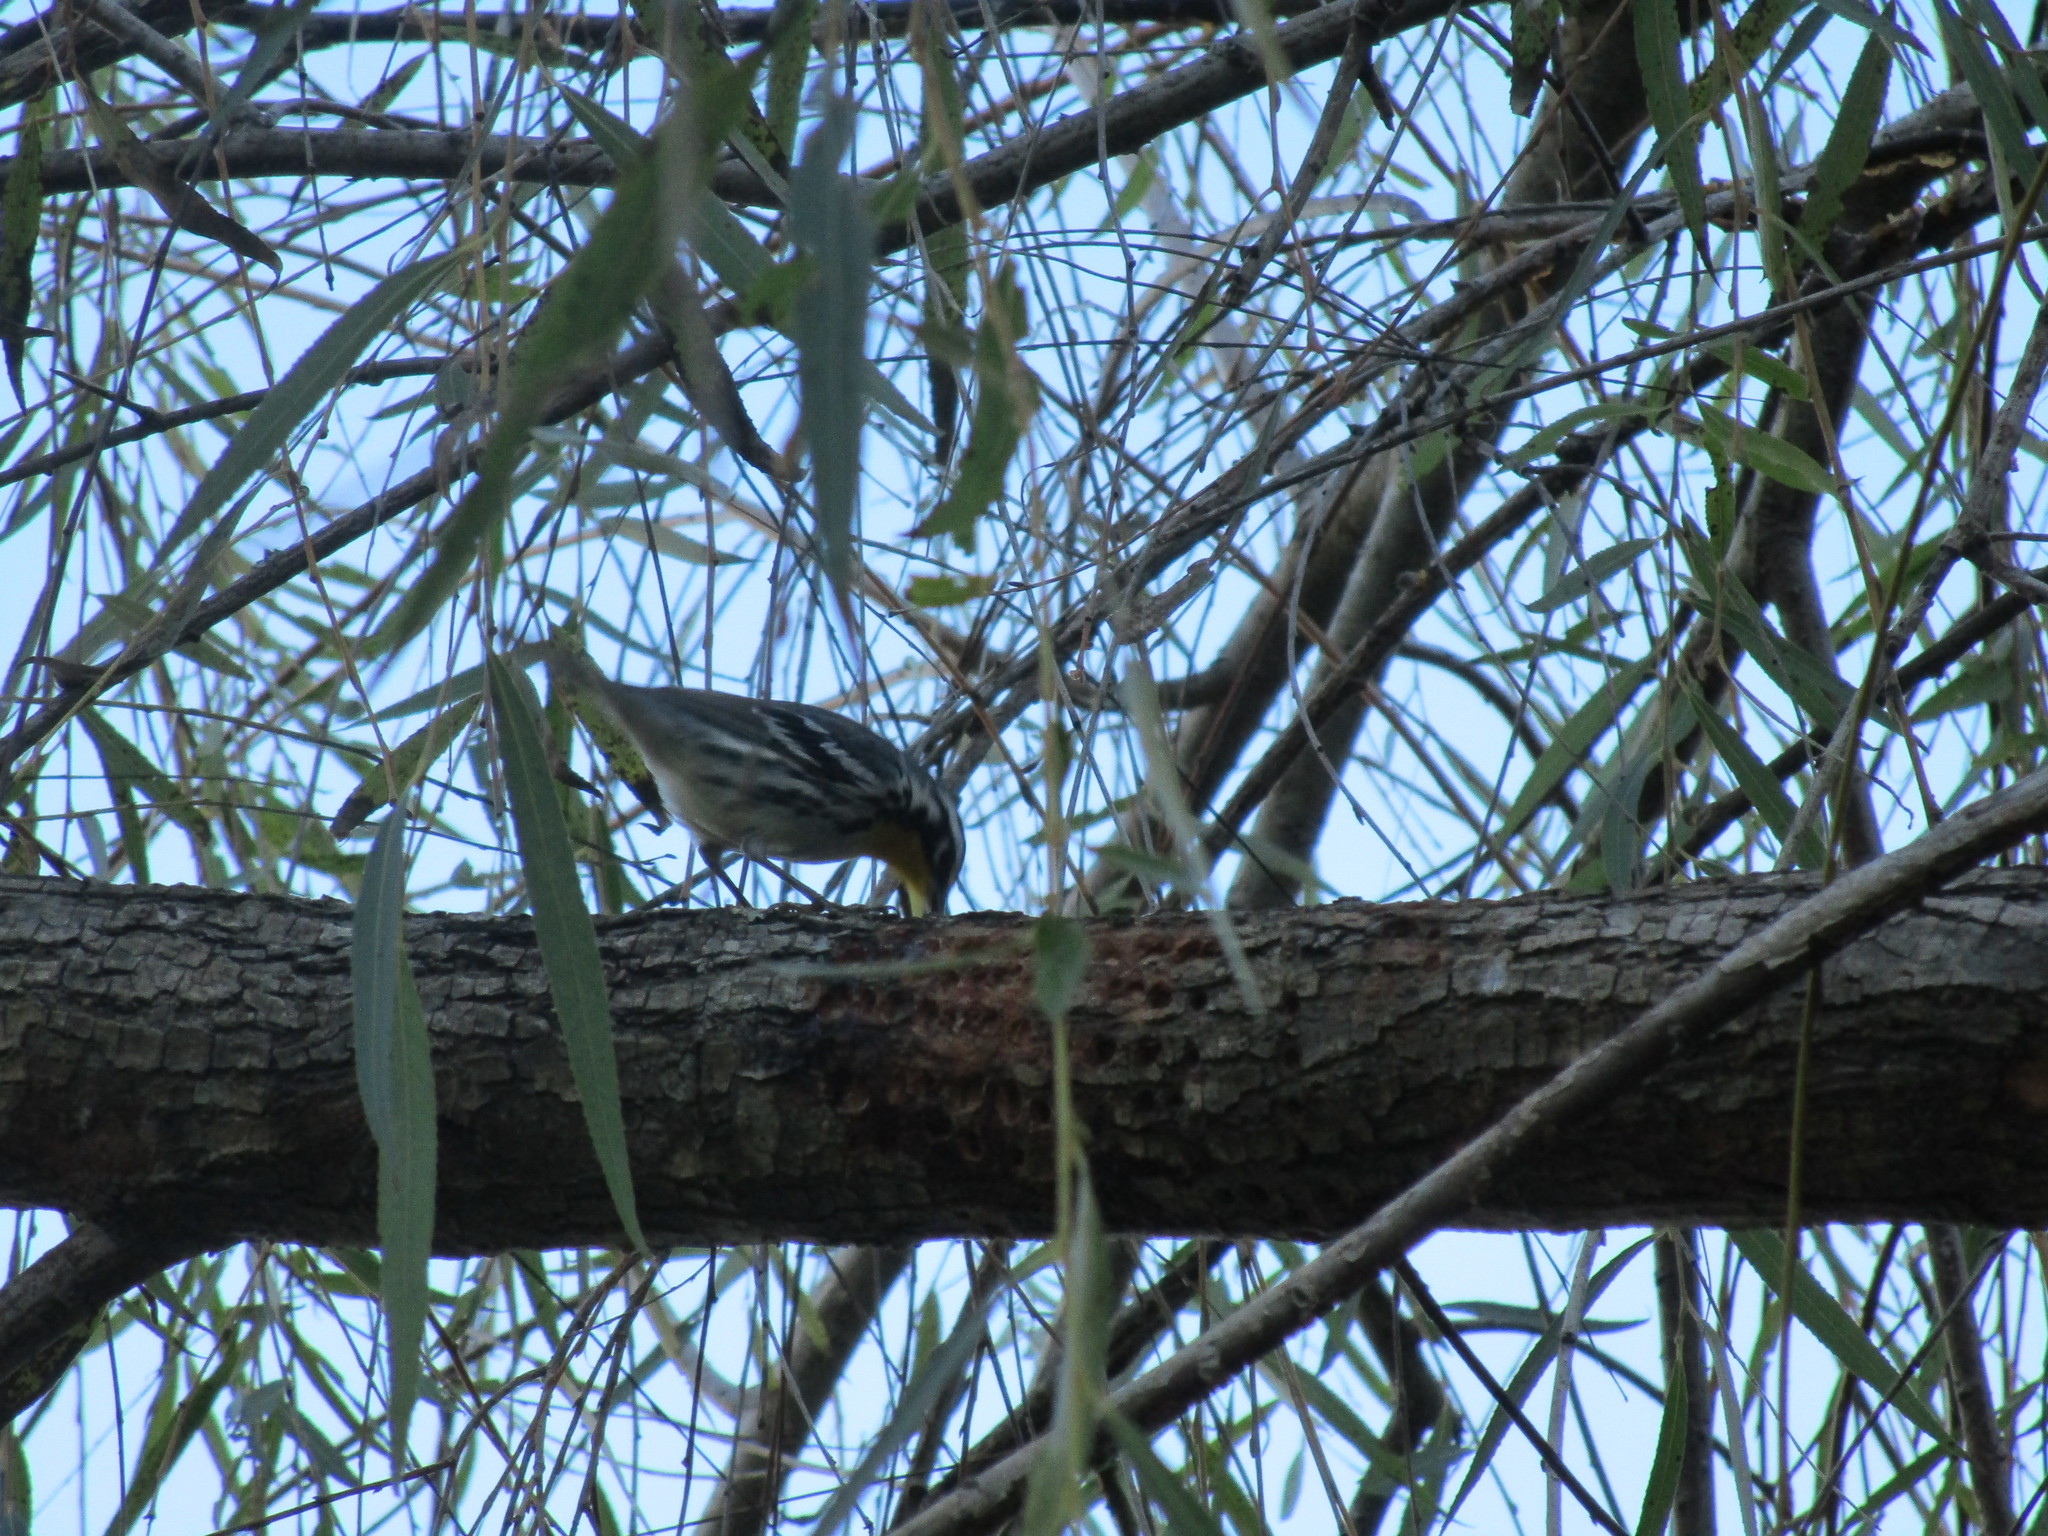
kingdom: Animalia
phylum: Chordata
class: Aves
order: Passeriformes
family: Parulidae
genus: Setophaga
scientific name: Setophaga dominica
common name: Yellow-throated warbler
